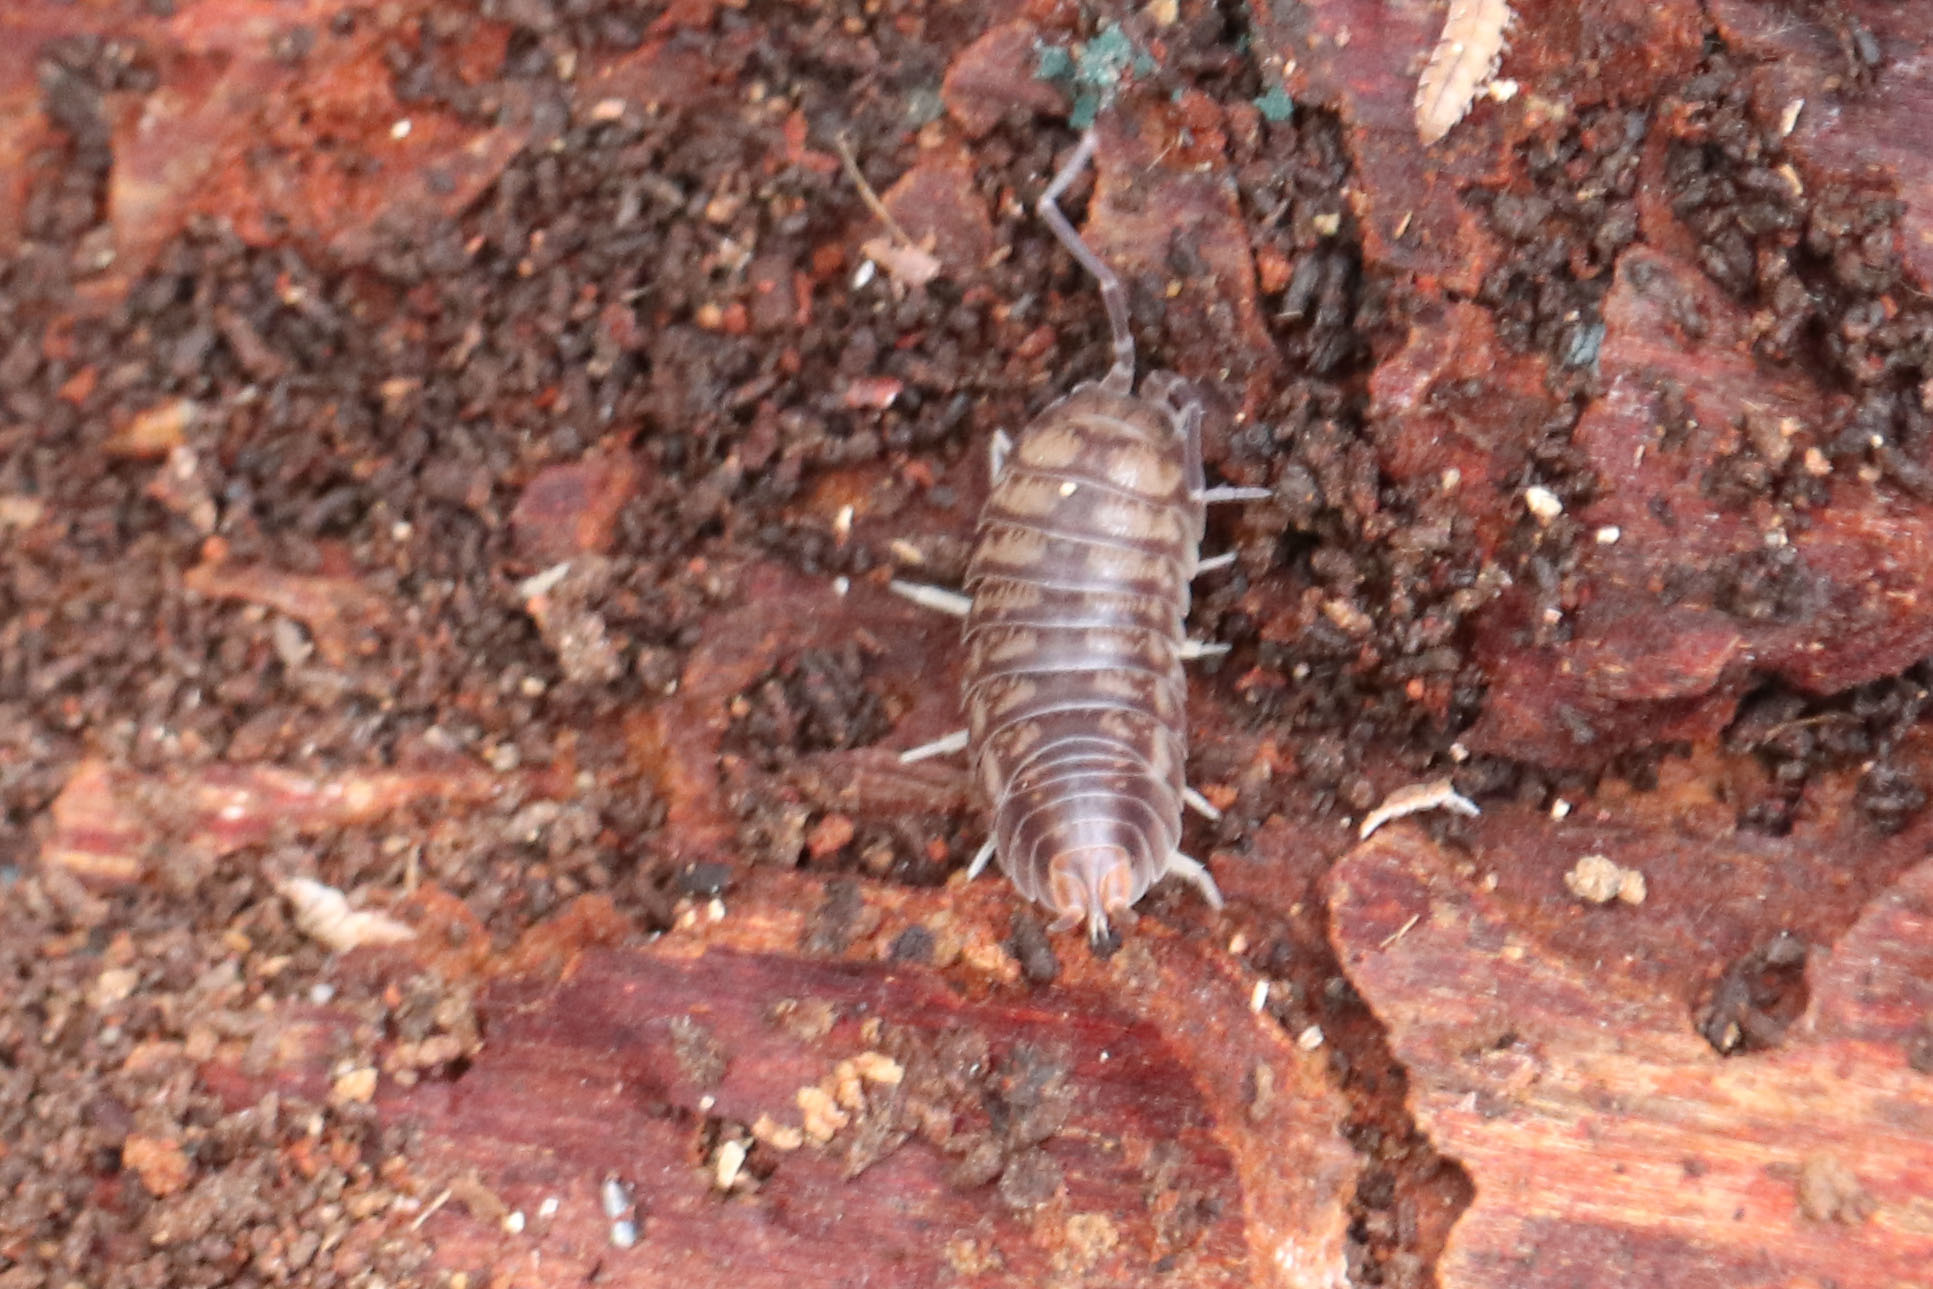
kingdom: Animalia
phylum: Arthropoda
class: Malacostraca
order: Isopoda
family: Cylisticidae
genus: Cylisticus
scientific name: Cylisticus convexus
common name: Curly woodlouse
